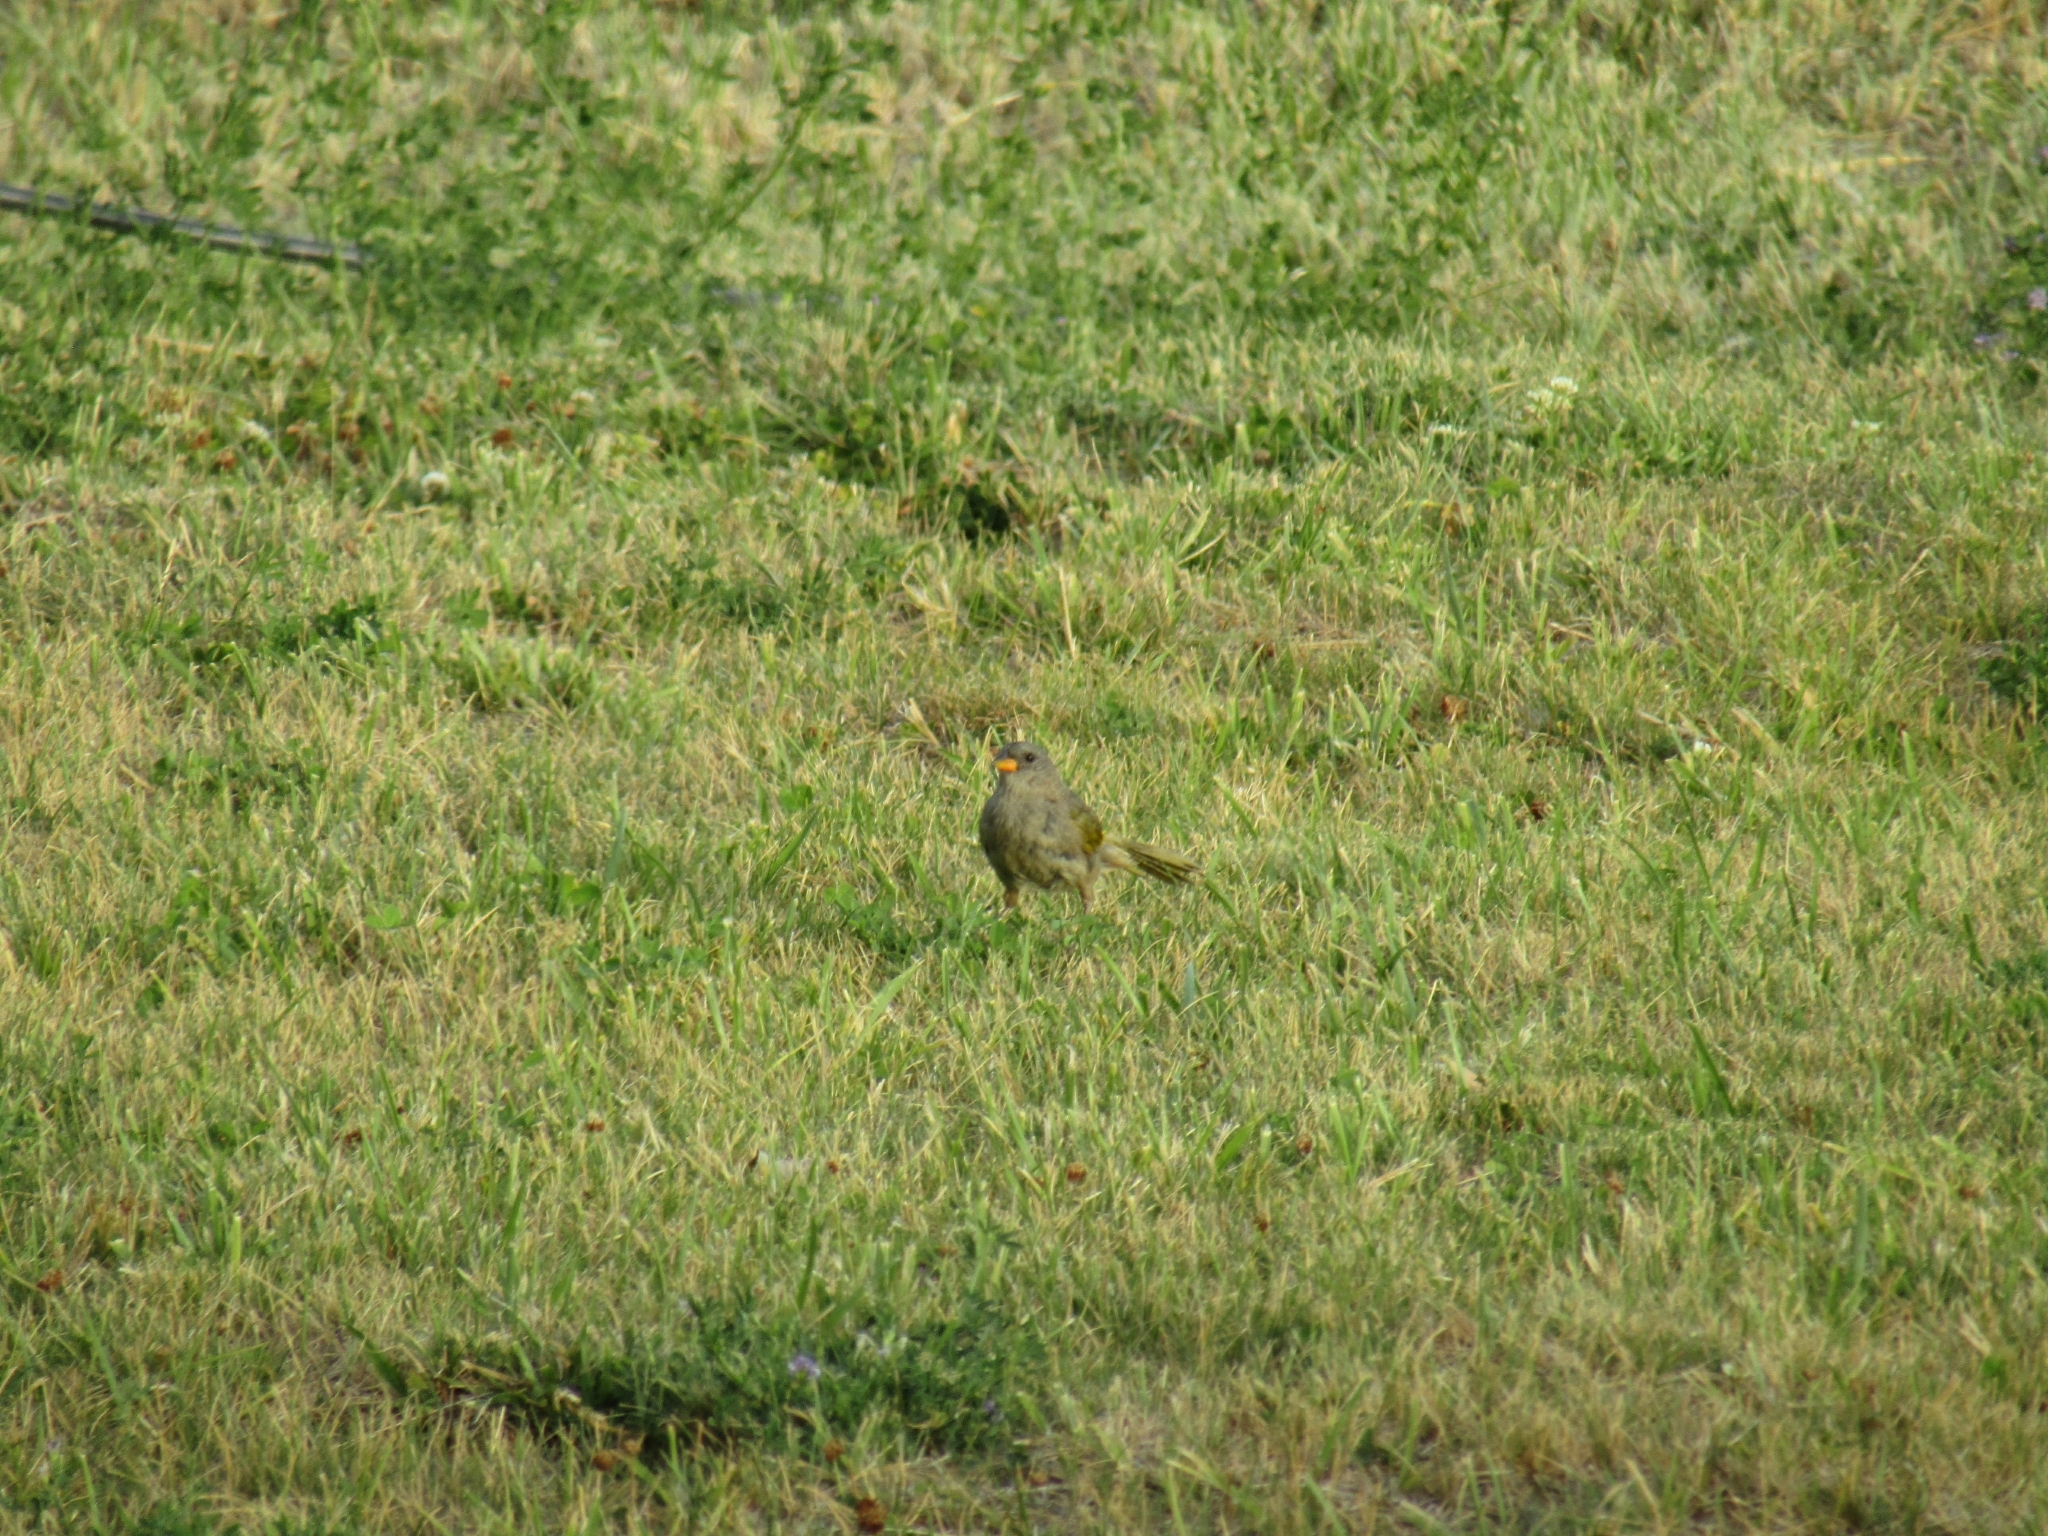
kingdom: Animalia
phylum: Chordata
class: Aves
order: Passeriformes
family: Thraupidae
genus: Embernagra
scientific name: Embernagra platensis
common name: Pampa finch
